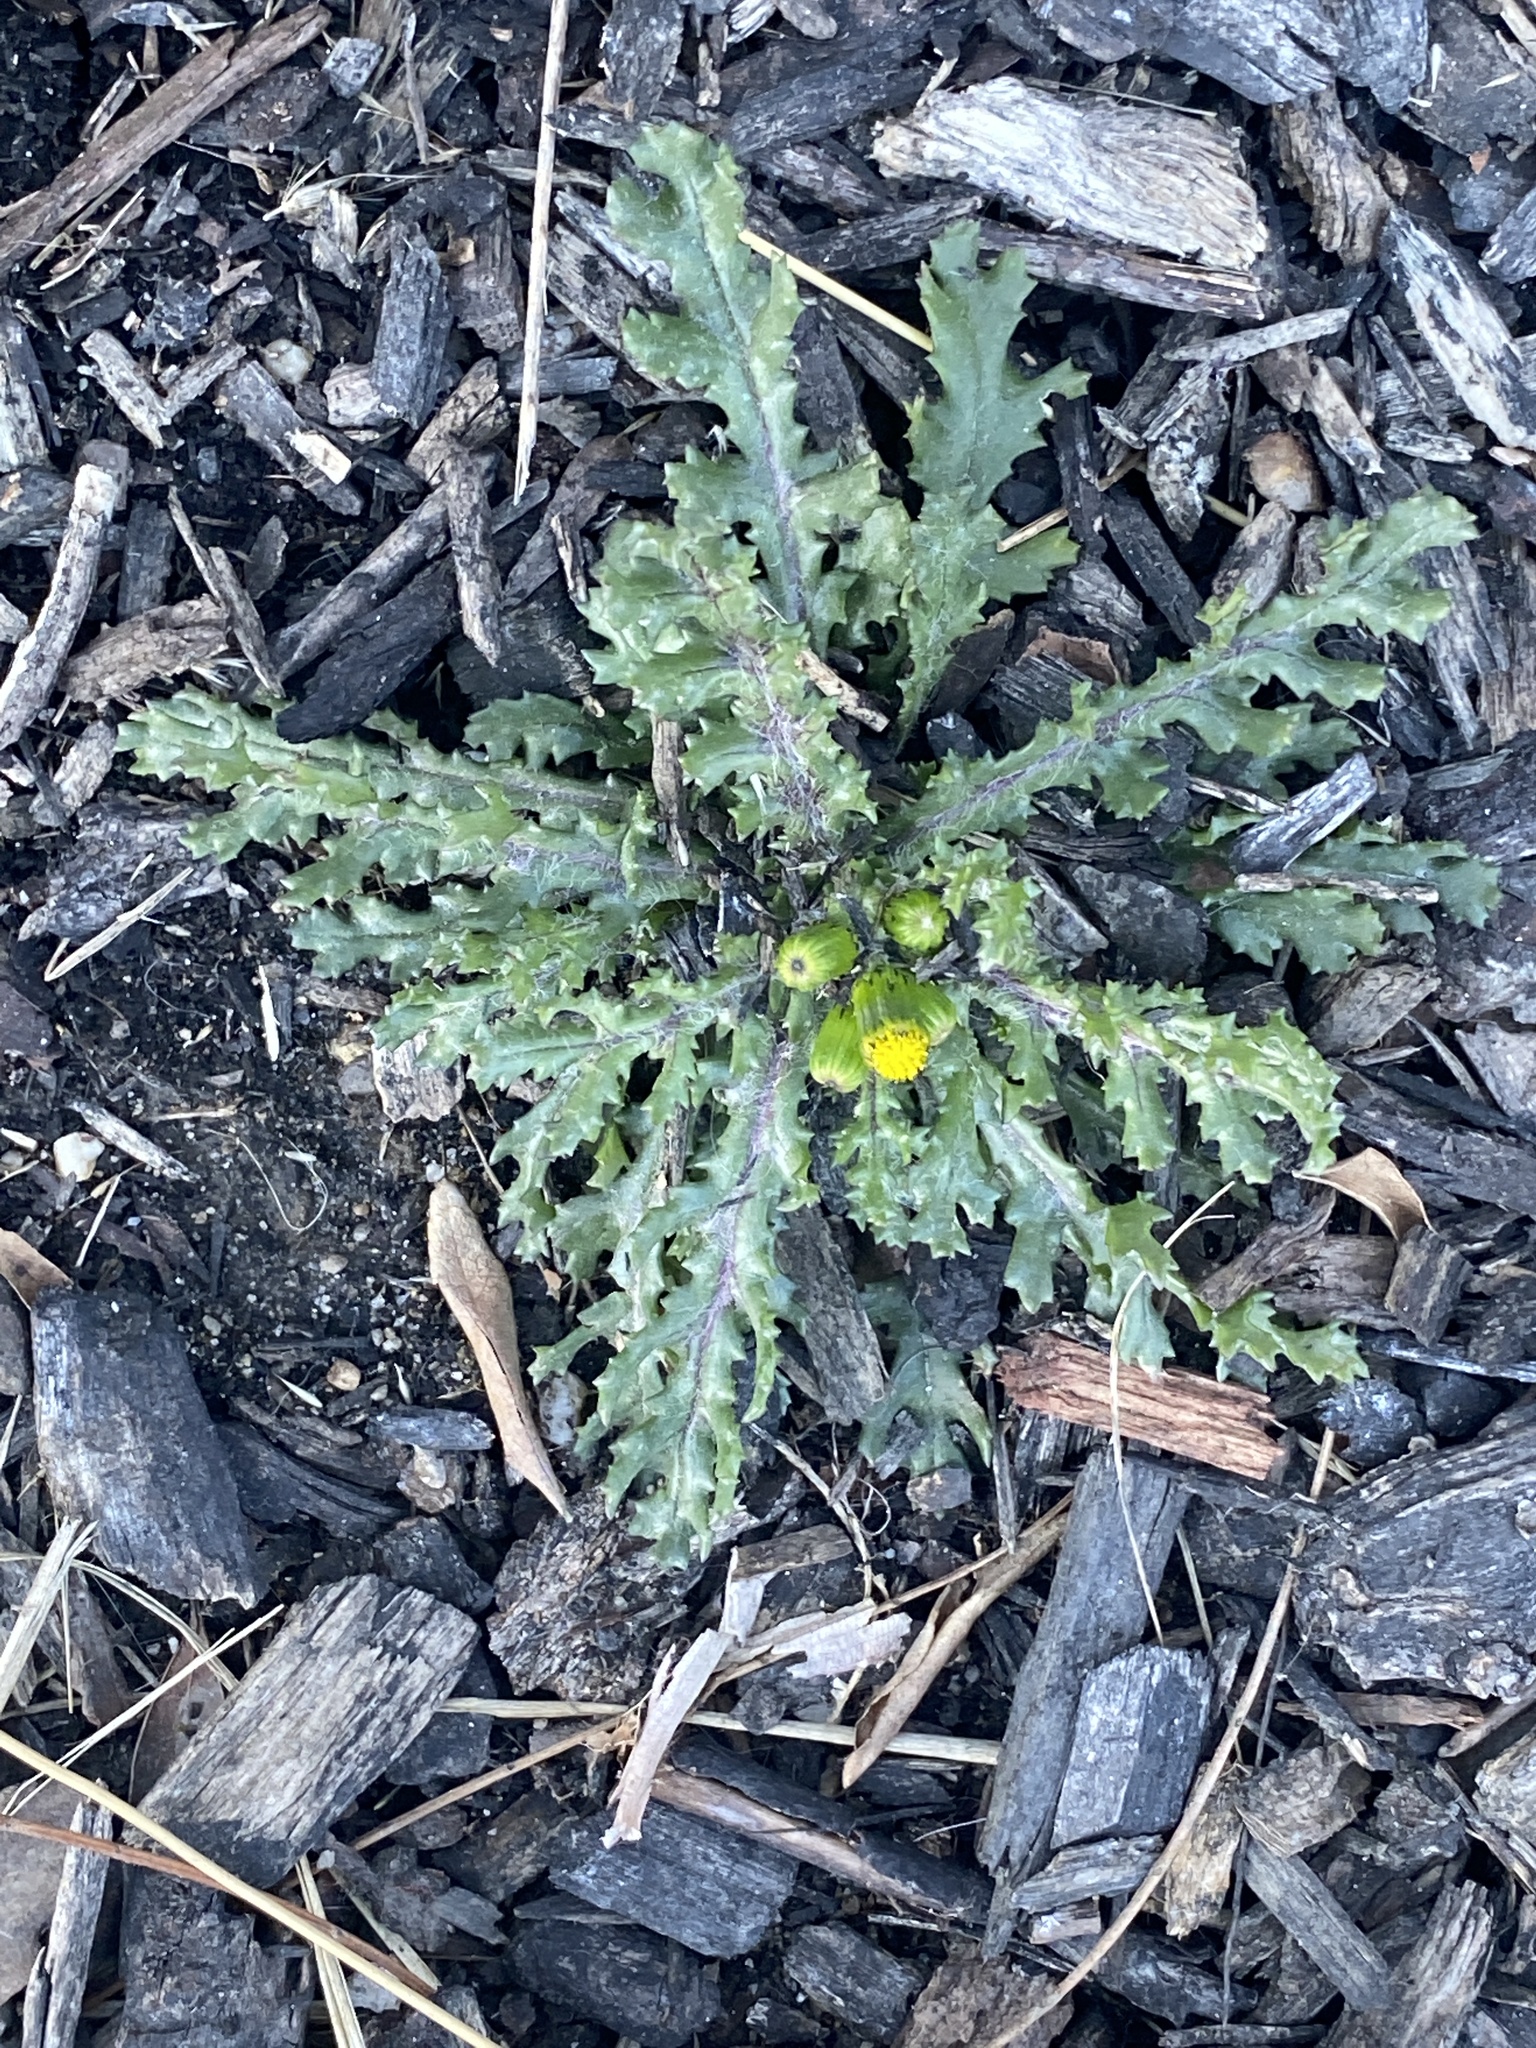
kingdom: Plantae
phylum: Tracheophyta
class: Magnoliopsida
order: Asterales
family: Asteraceae
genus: Senecio
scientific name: Senecio vulgaris
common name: Old-man-in-the-spring
